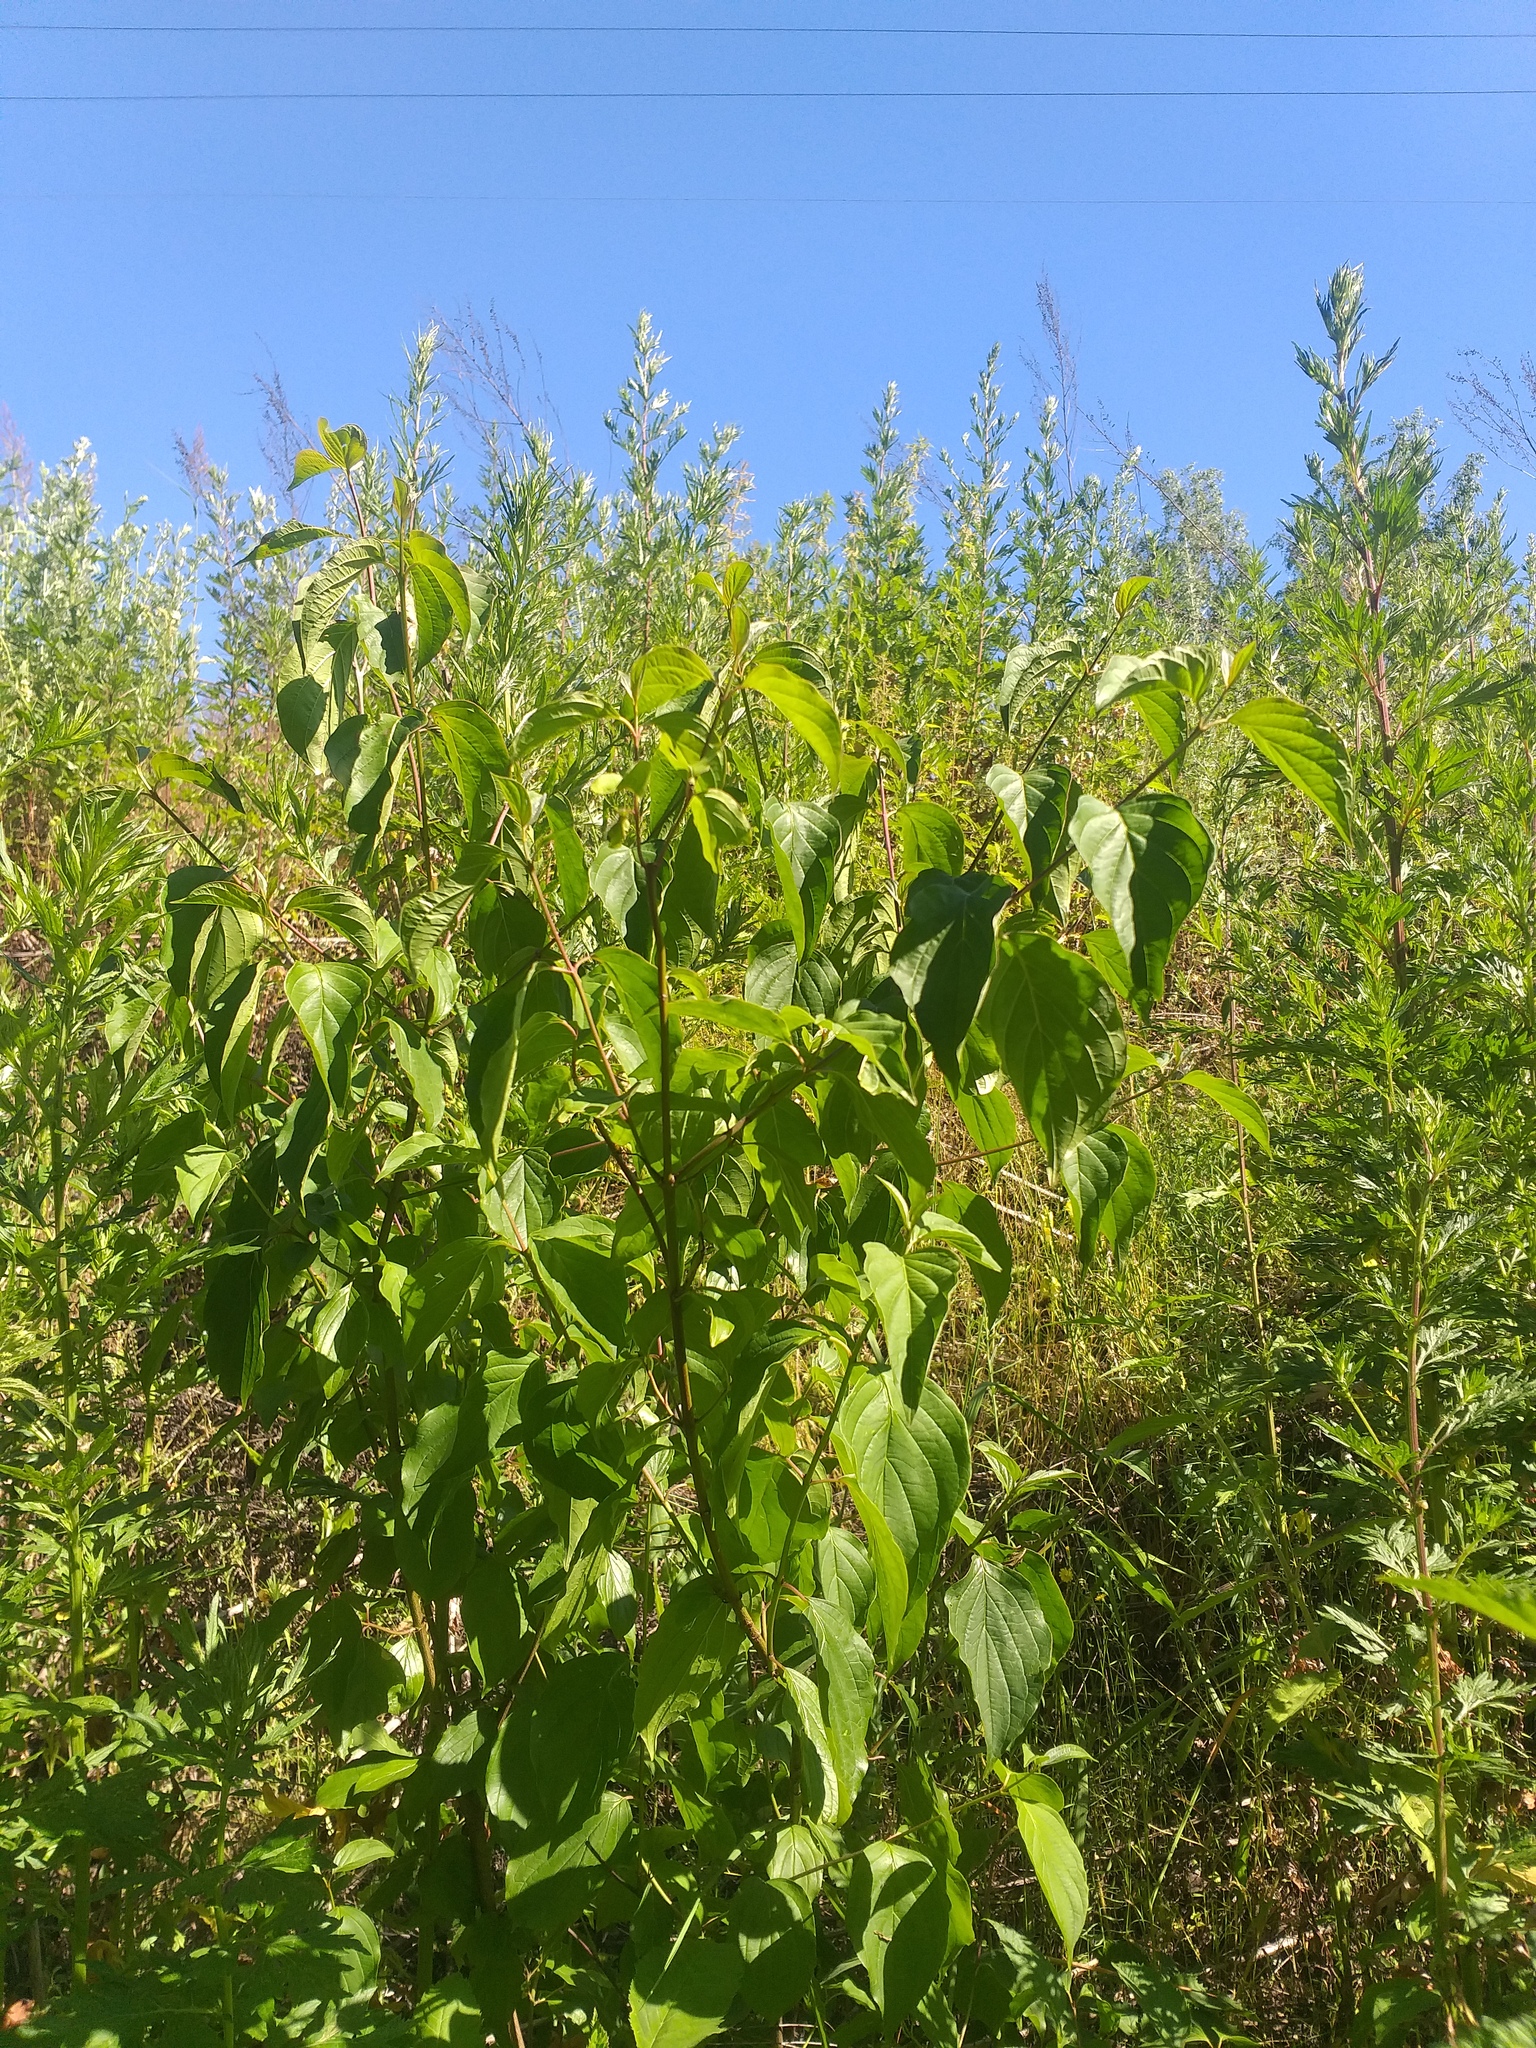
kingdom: Plantae
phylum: Tracheophyta
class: Magnoliopsida
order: Cornales
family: Cornaceae
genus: Cornus
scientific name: Cornus sanguinea
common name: Dogwood
